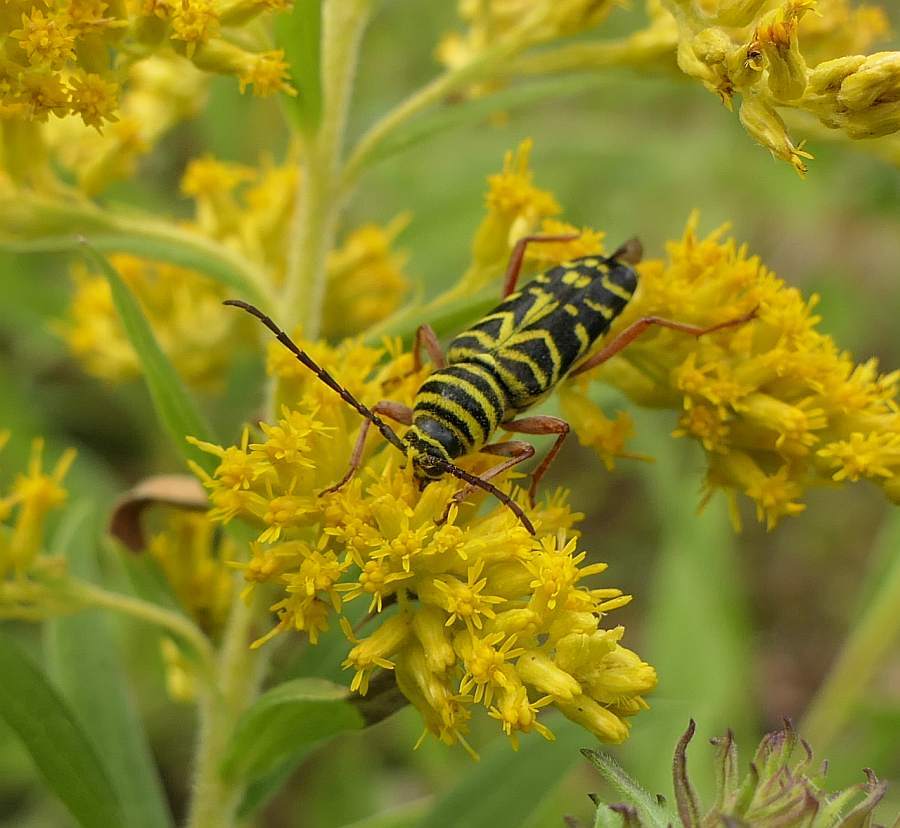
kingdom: Animalia
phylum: Arthropoda
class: Insecta
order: Coleoptera
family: Cerambycidae
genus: Megacyllene
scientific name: Megacyllene robiniae
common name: Locust borer
